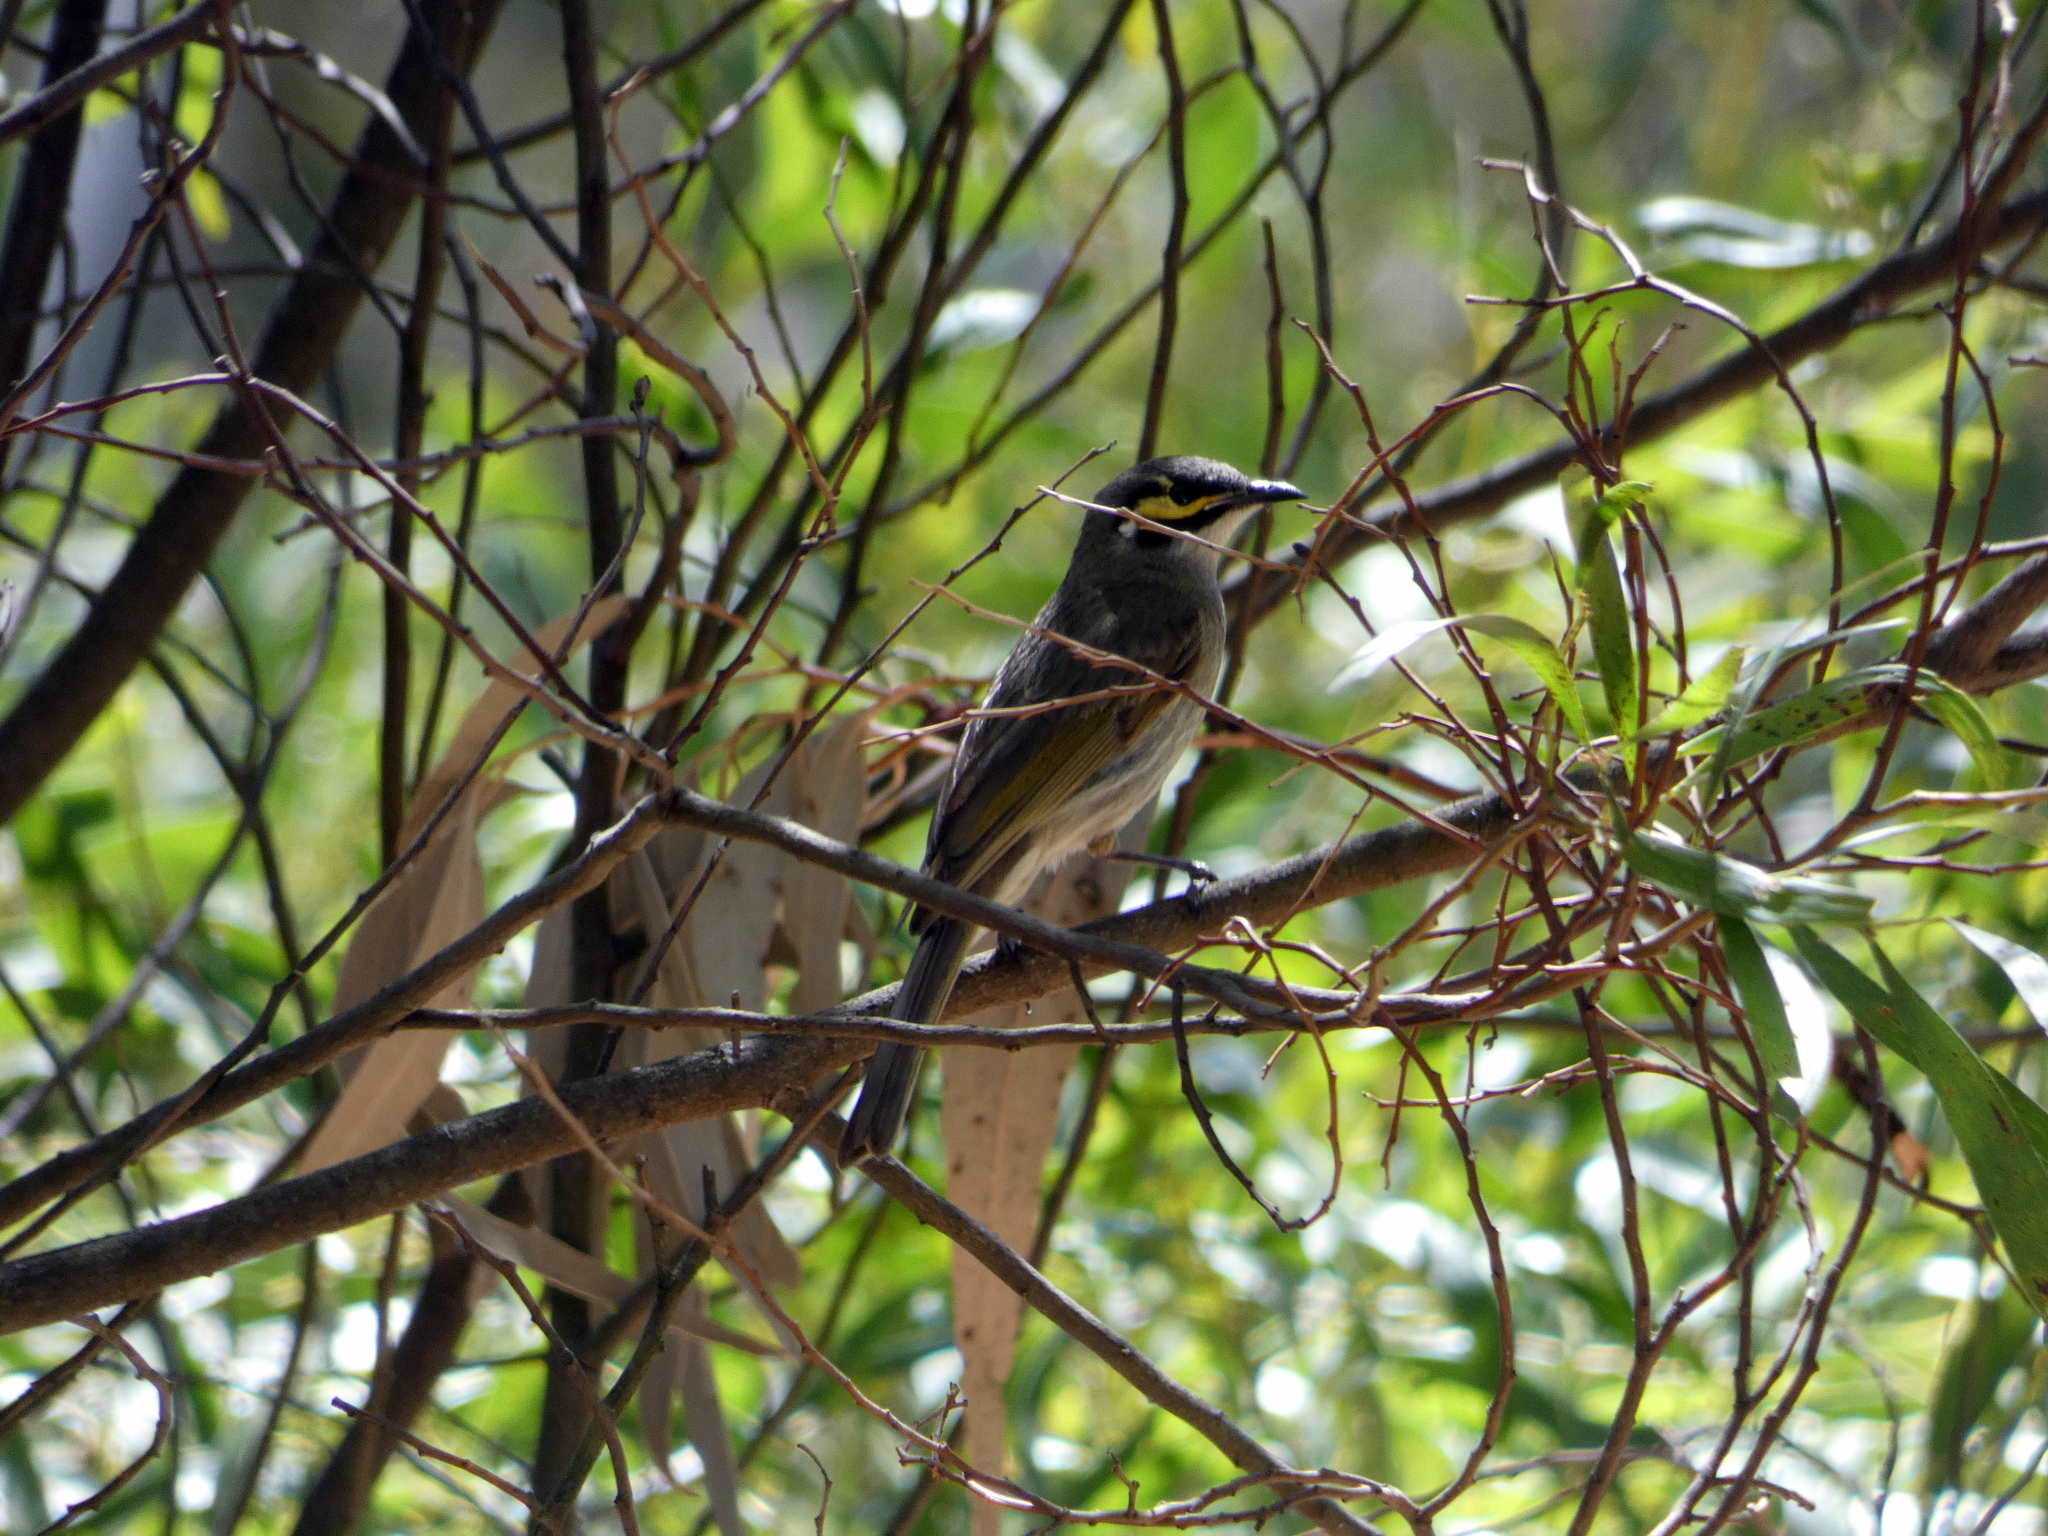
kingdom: Animalia
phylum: Chordata
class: Aves
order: Passeriformes
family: Meliphagidae
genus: Caligavis
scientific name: Caligavis chrysops
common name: Yellow-faced honeyeater
